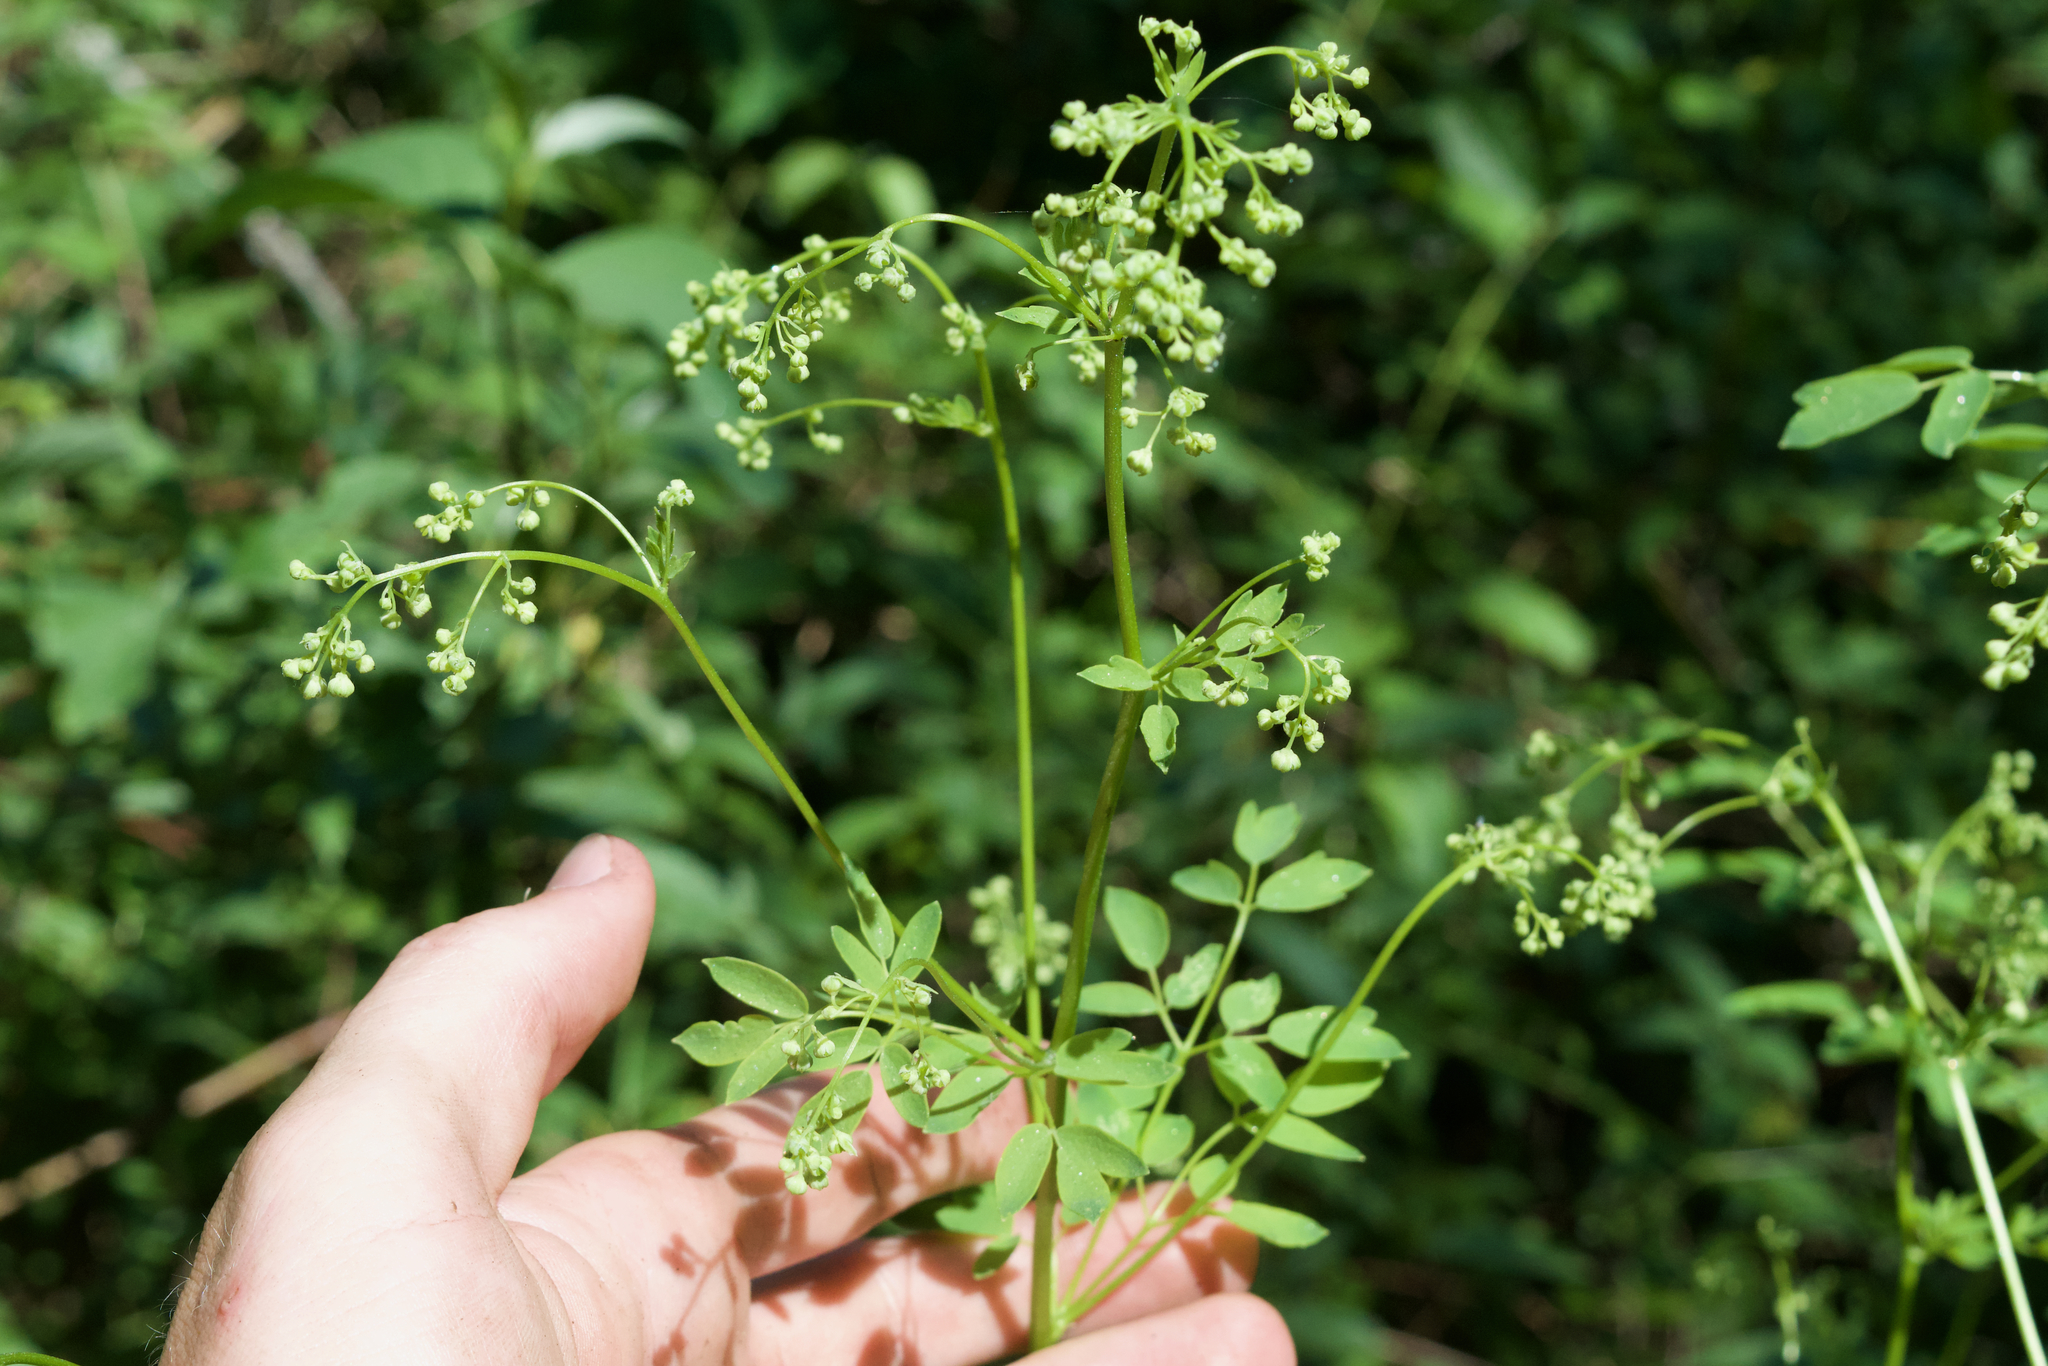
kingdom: Plantae
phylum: Tracheophyta
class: Magnoliopsida
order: Ranunculales
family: Ranunculaceae
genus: Thalictrum
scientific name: Thalictrum dasycarpum
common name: Purple meadow-rue
